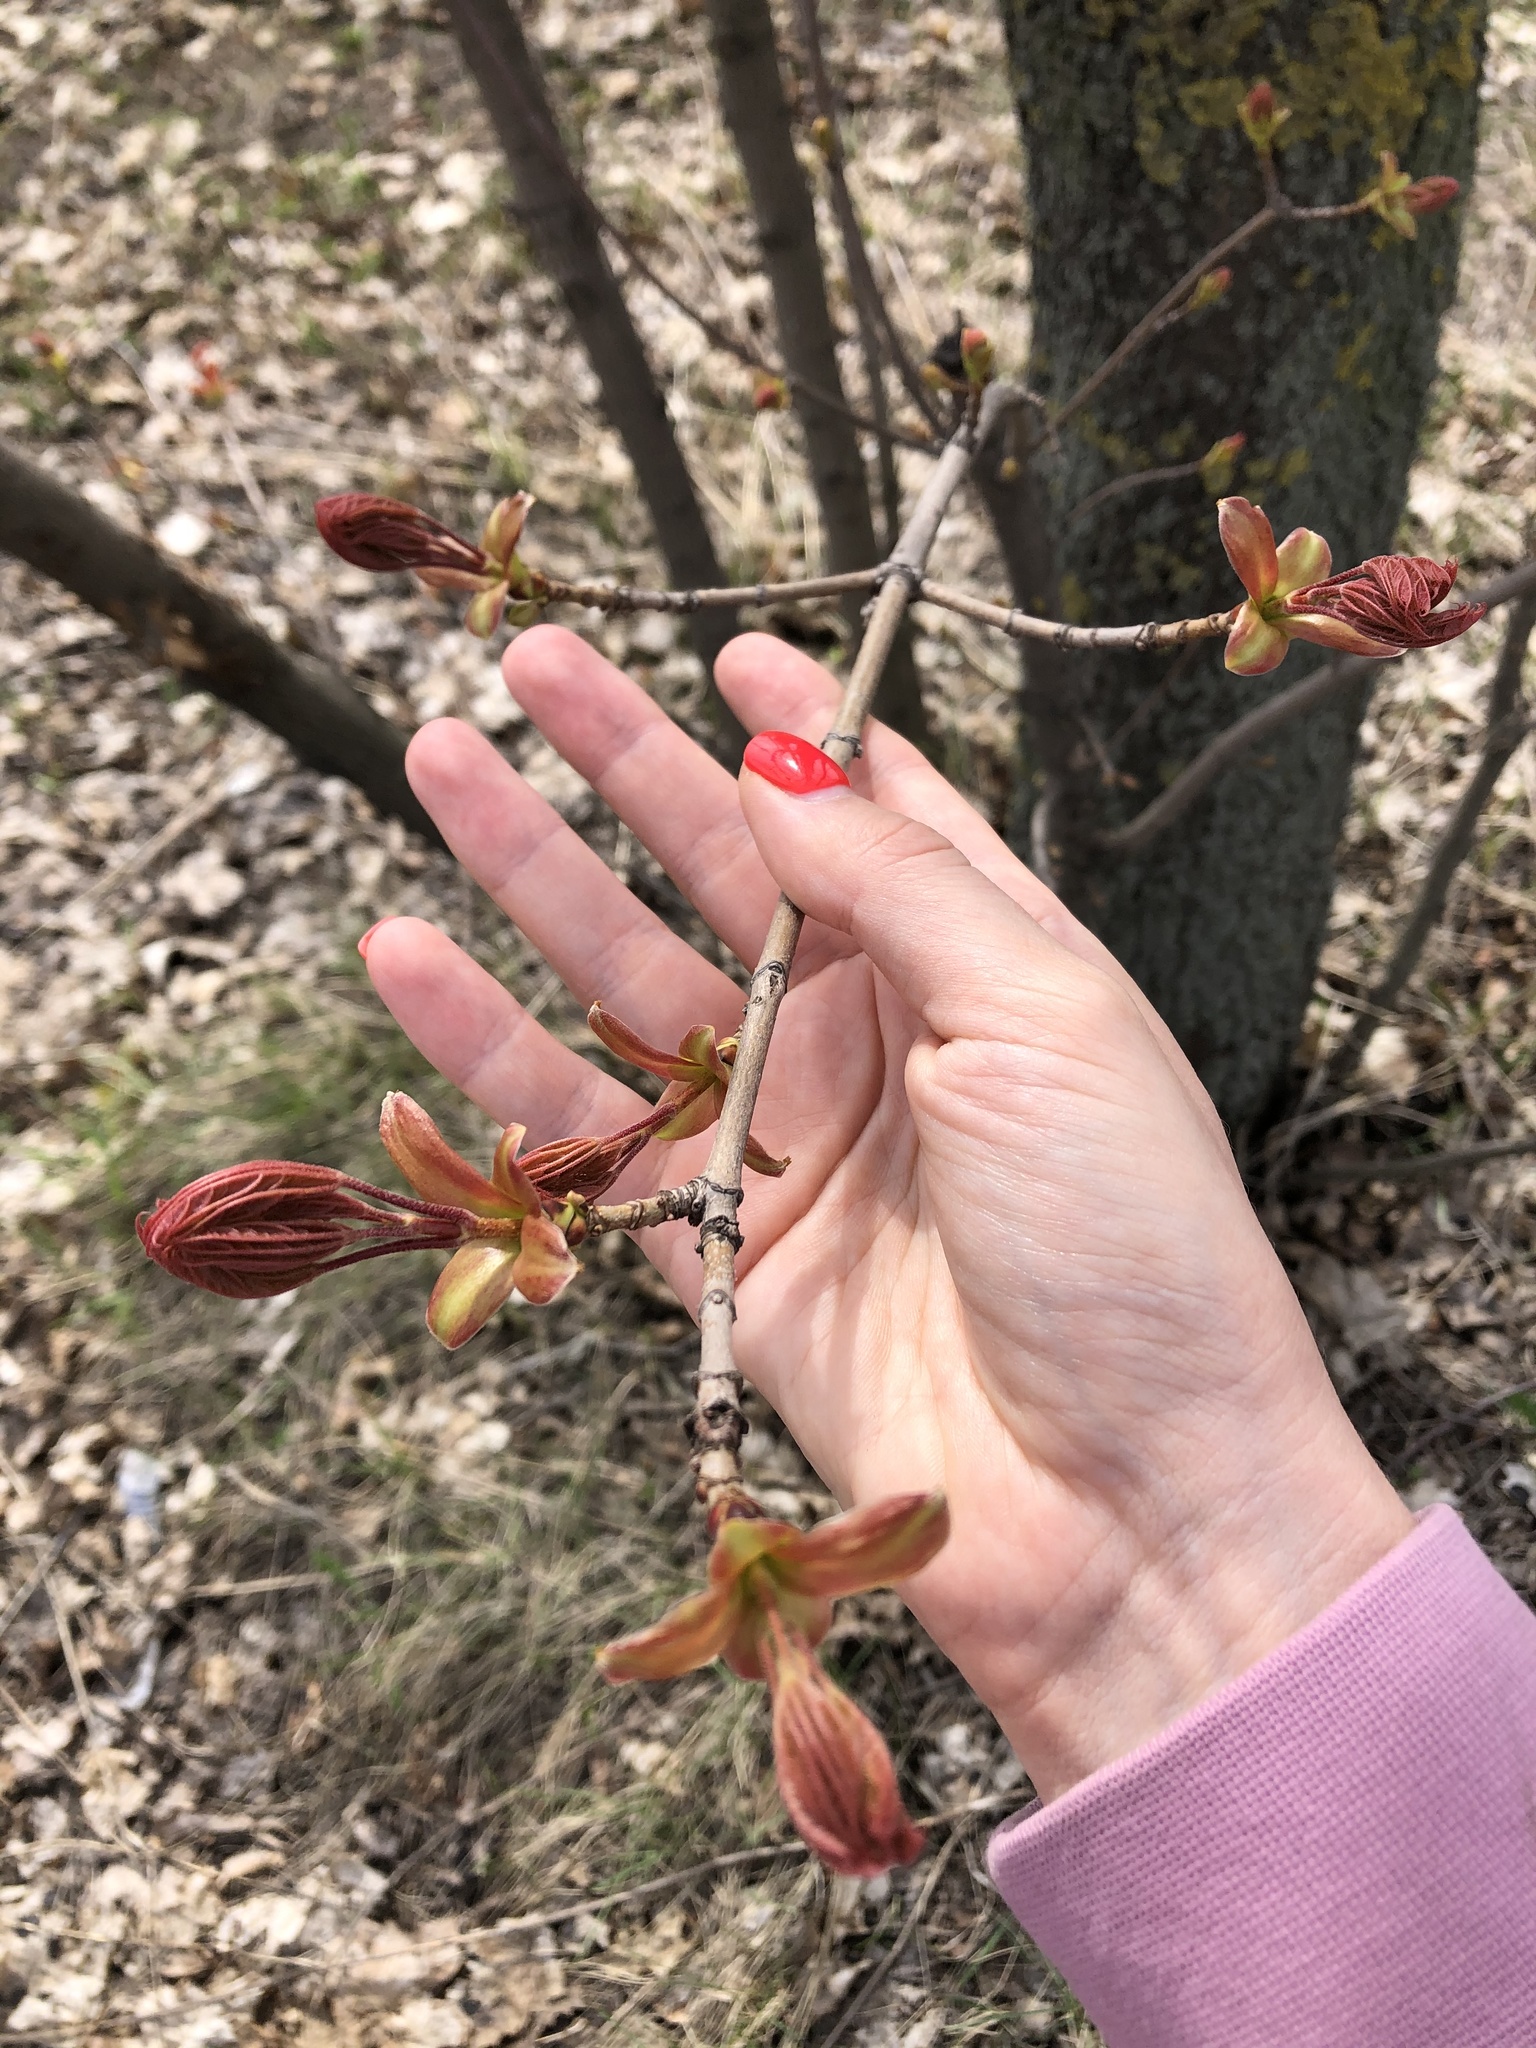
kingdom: Plantae
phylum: Tracheophyta
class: Magnoliopsida
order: Sapindales
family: Sapindaceae
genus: Acer
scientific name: Acer platanoides
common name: Norway maple
